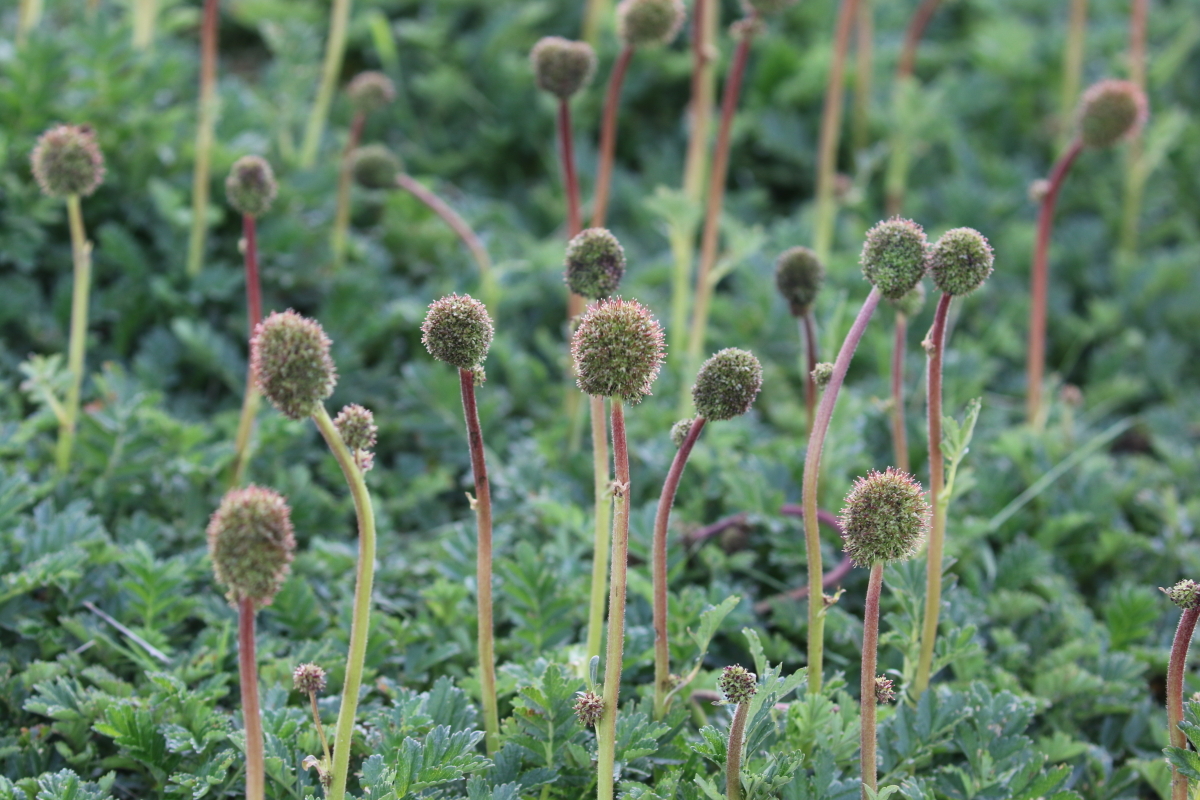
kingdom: Plantae
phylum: Tracheophyta
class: Magnoliopsida
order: Rosales
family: Rosaceae
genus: Acaena
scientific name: Acaena magellanica
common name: New zealand burr
